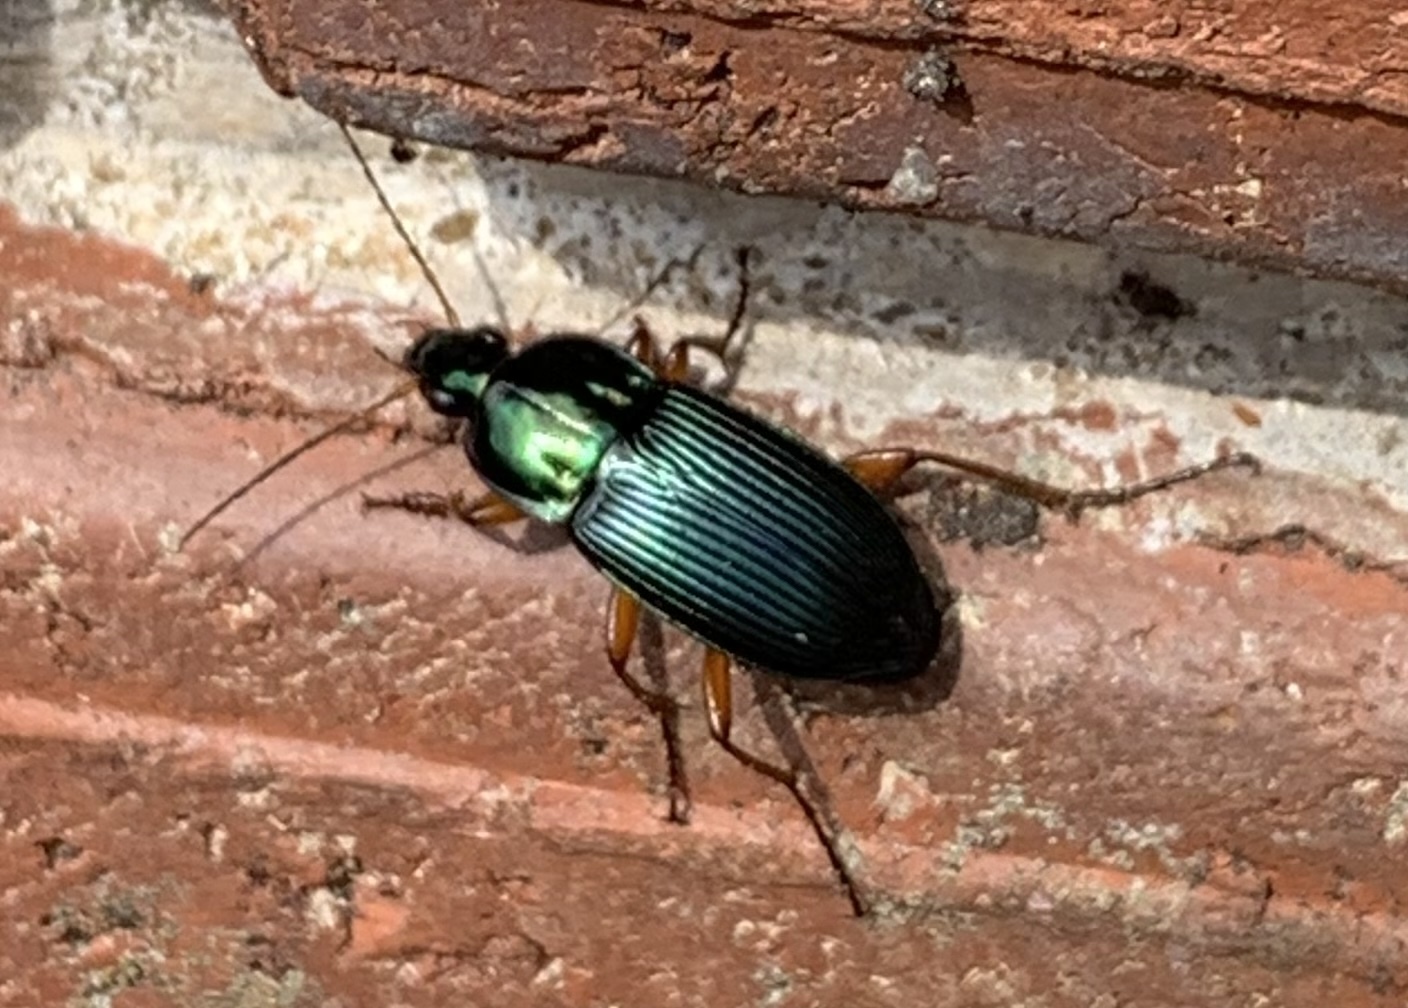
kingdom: Animalia
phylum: Arthropoda
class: Insecta
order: Coleoptera
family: Carabidae
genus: Poecilus
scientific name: Poecilus lucublandus
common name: Woodland ground beetle
